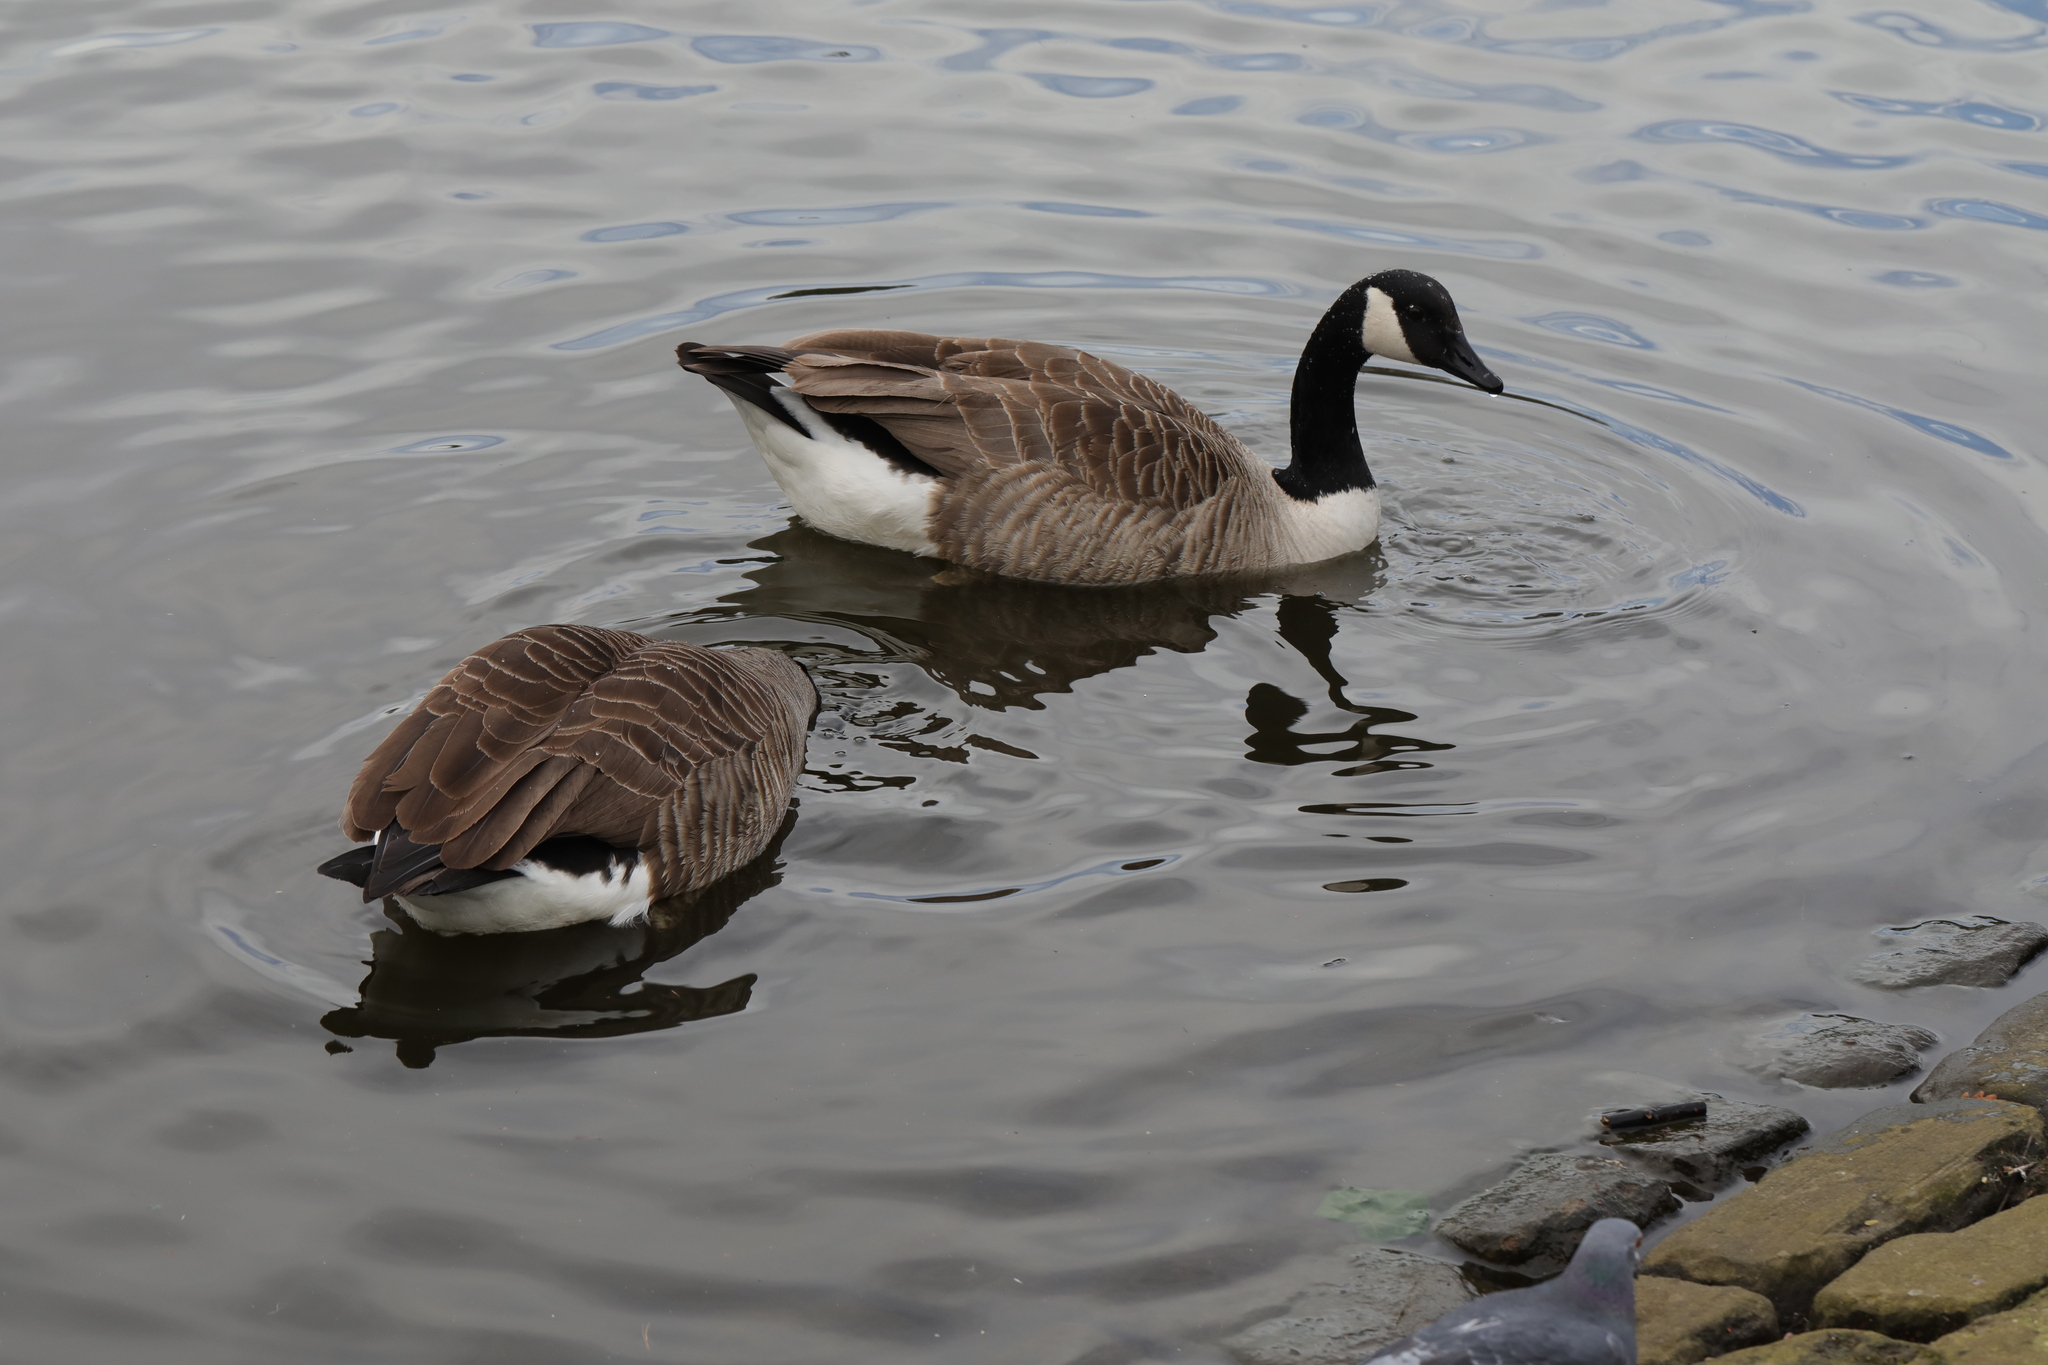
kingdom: Animalia
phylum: Chordata
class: Aves
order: Anseriformes
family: Anatidae
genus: Branta
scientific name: Branta canadensis
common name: Canada goose
